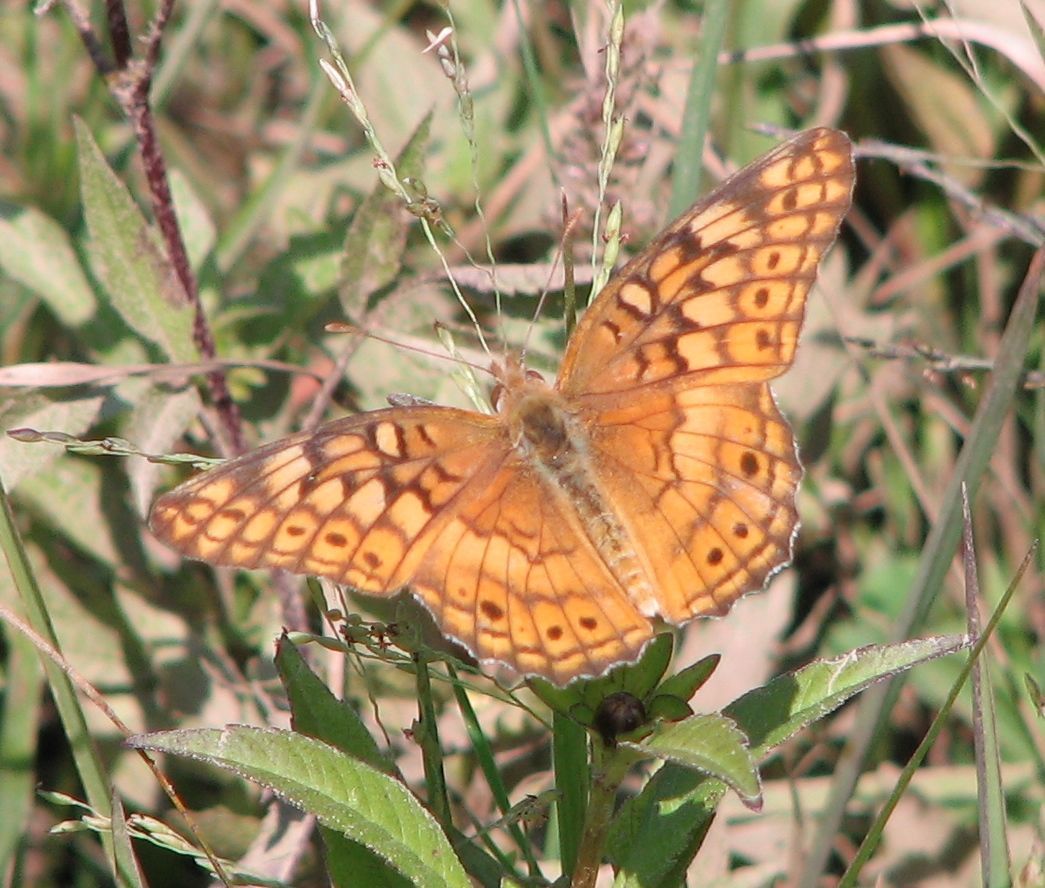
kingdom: Animalia
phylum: Arthropoda
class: Insecta
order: Lepidoptera
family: Nymphalidae
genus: Euptoieta
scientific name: Euptoieta claudia
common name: Variegated fritillary
